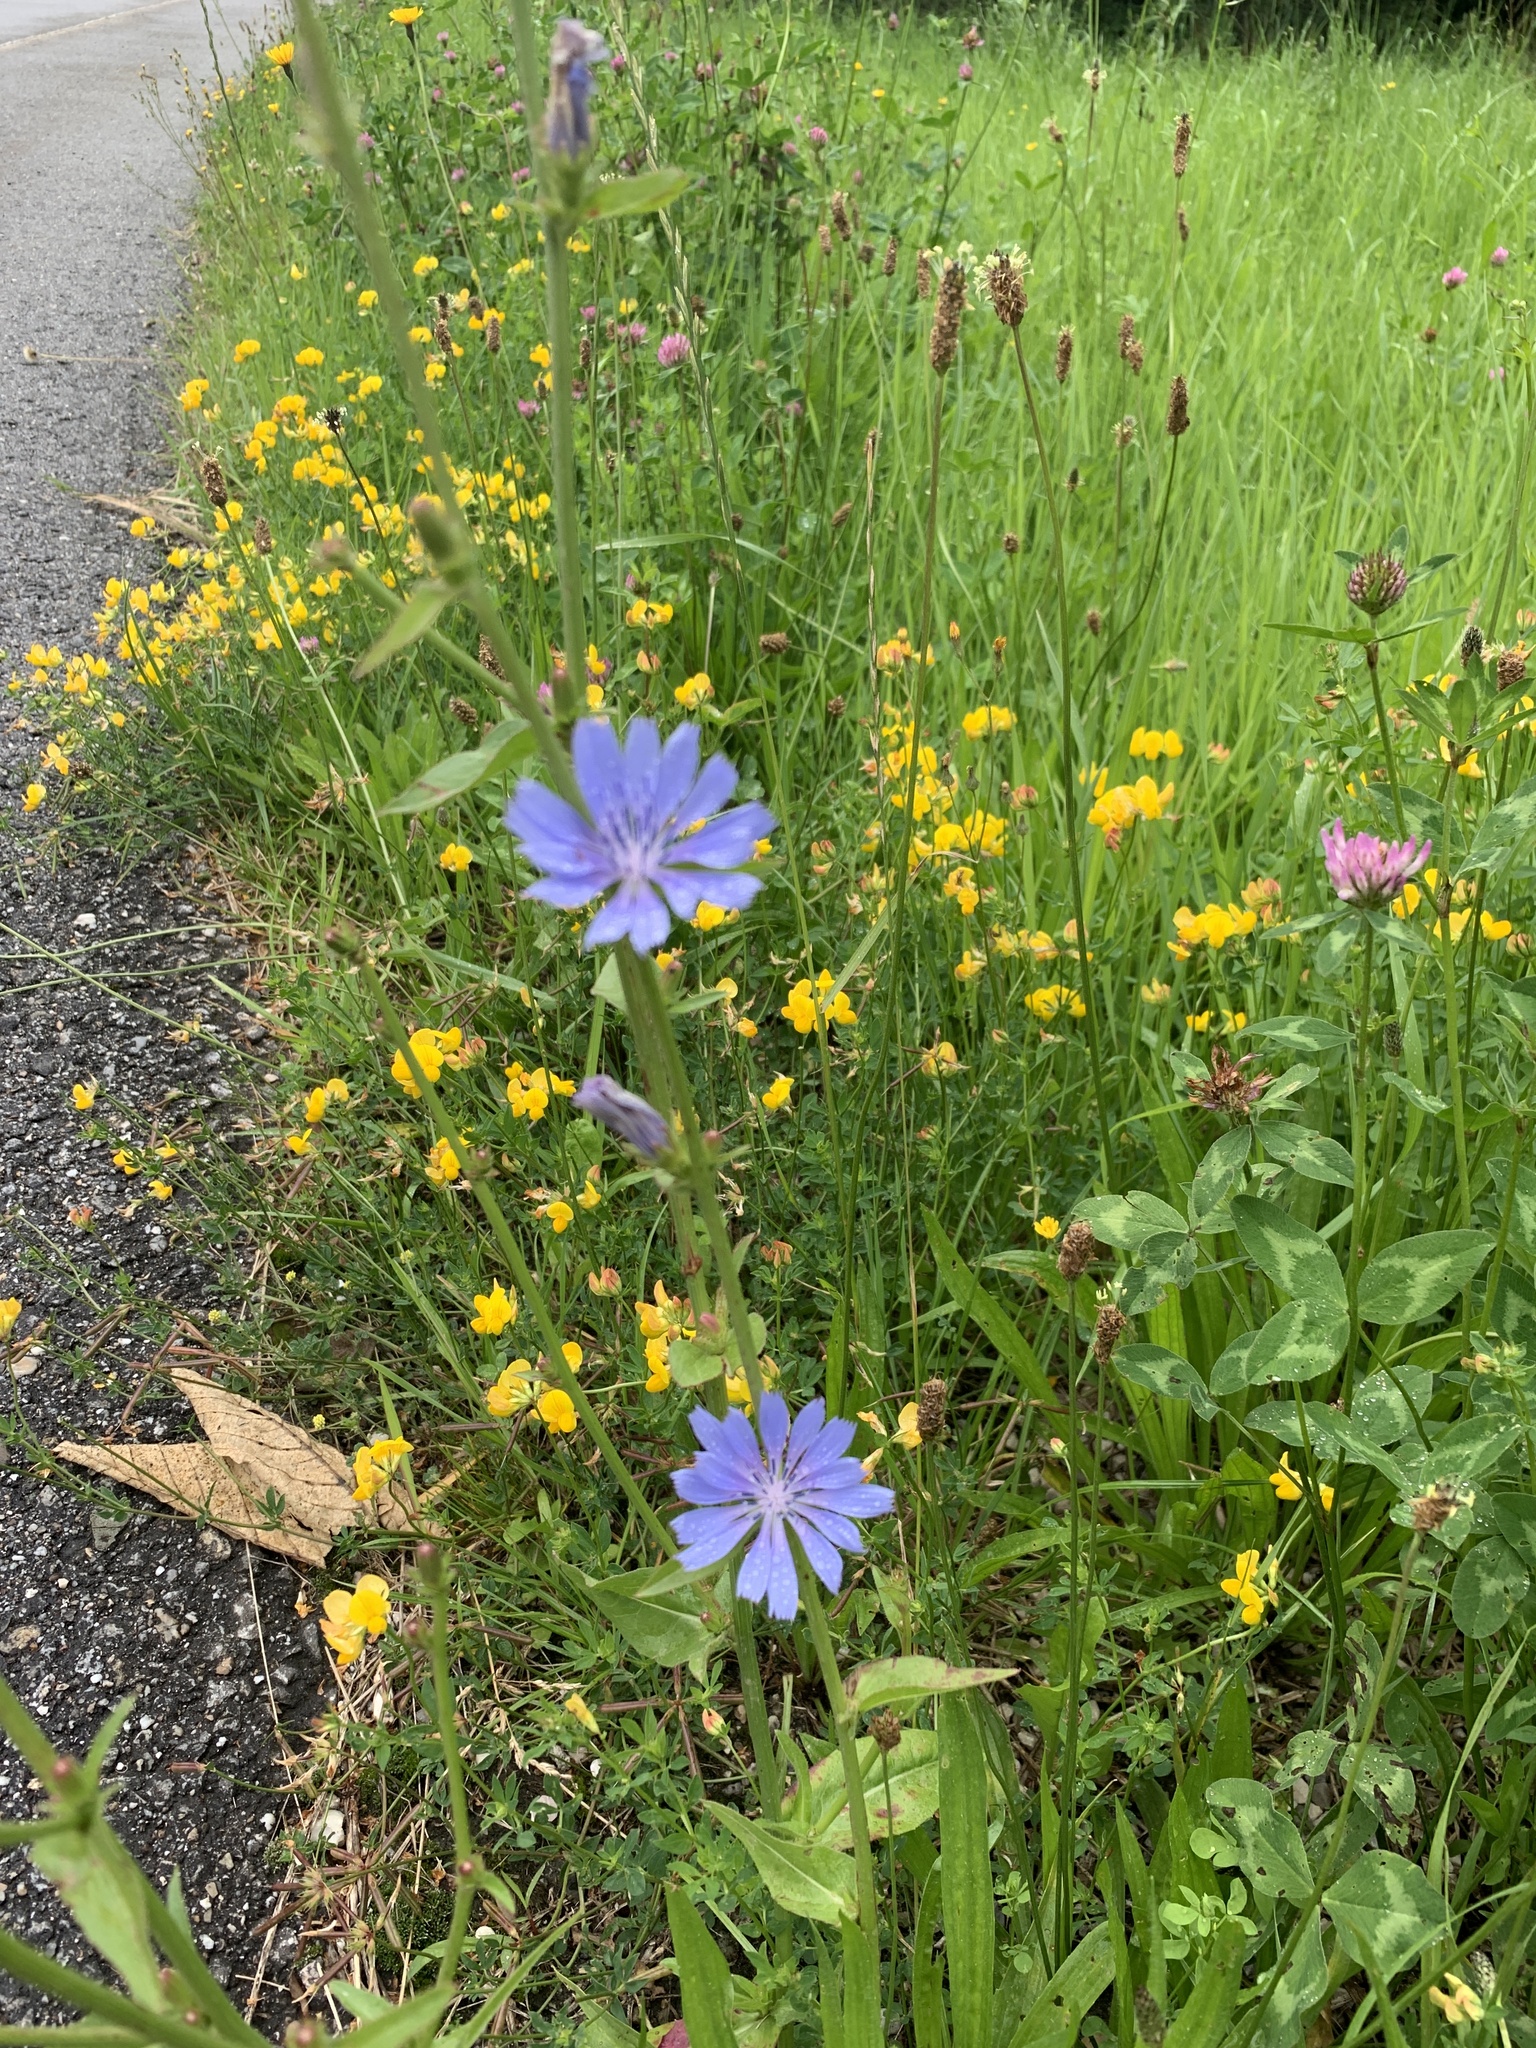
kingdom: Plantae
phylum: Tracheophyta
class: Magnoliopsida
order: Asterales
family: Asteraceae
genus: Cichorium
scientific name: Cichorium intybus
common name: Chicory
